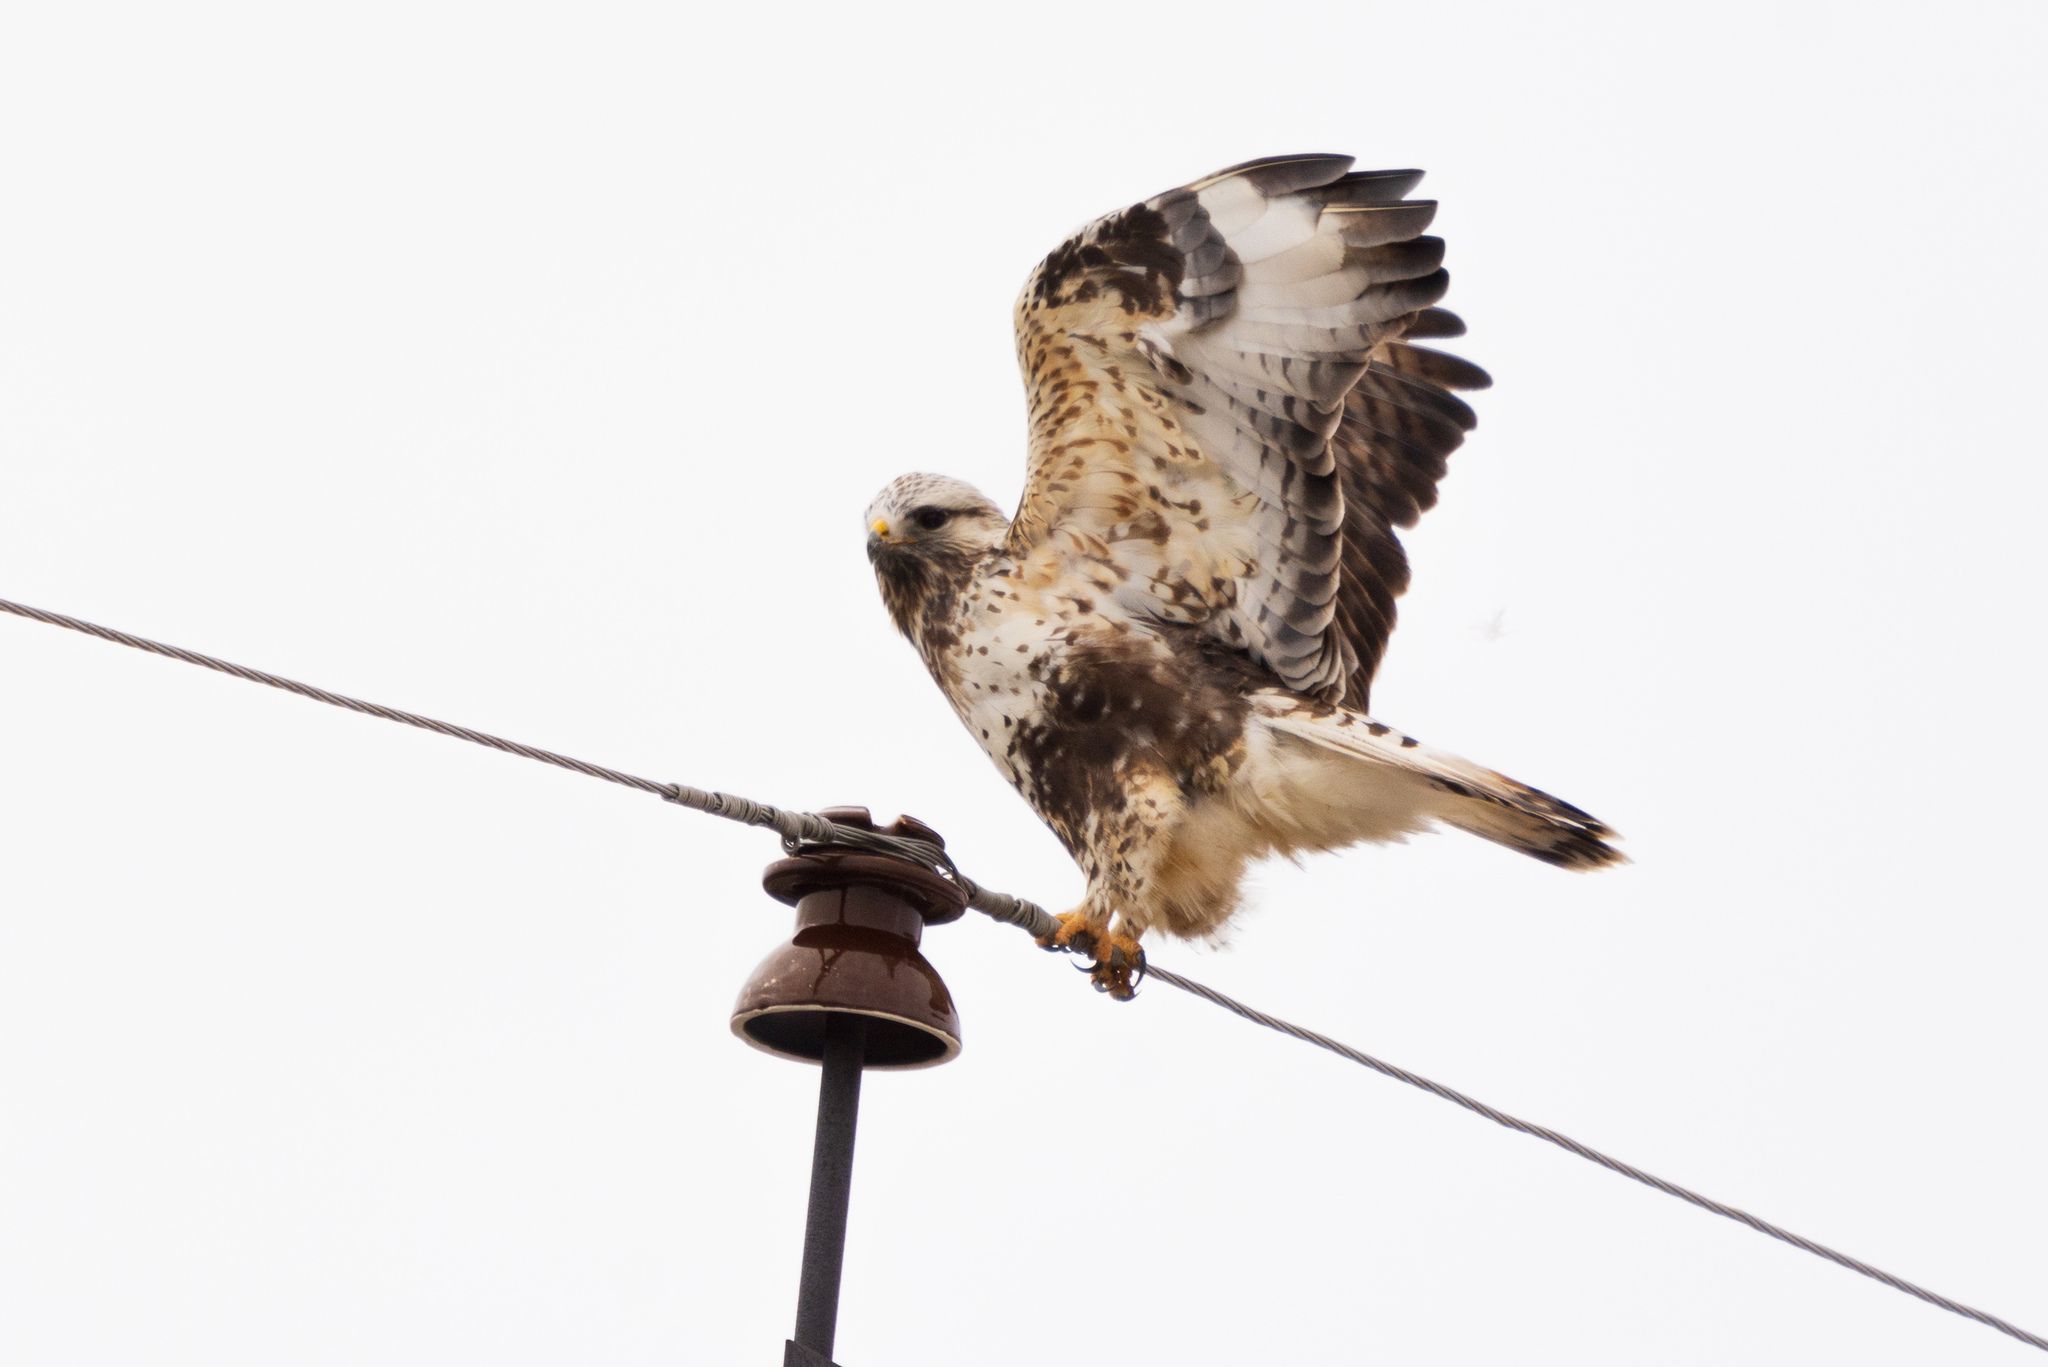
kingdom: Animalia
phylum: Chordata
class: Aves
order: Accipitriformes
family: Accipitridae
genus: Buteo
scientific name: Buteo lagopus
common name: Rough-legged buzzard
